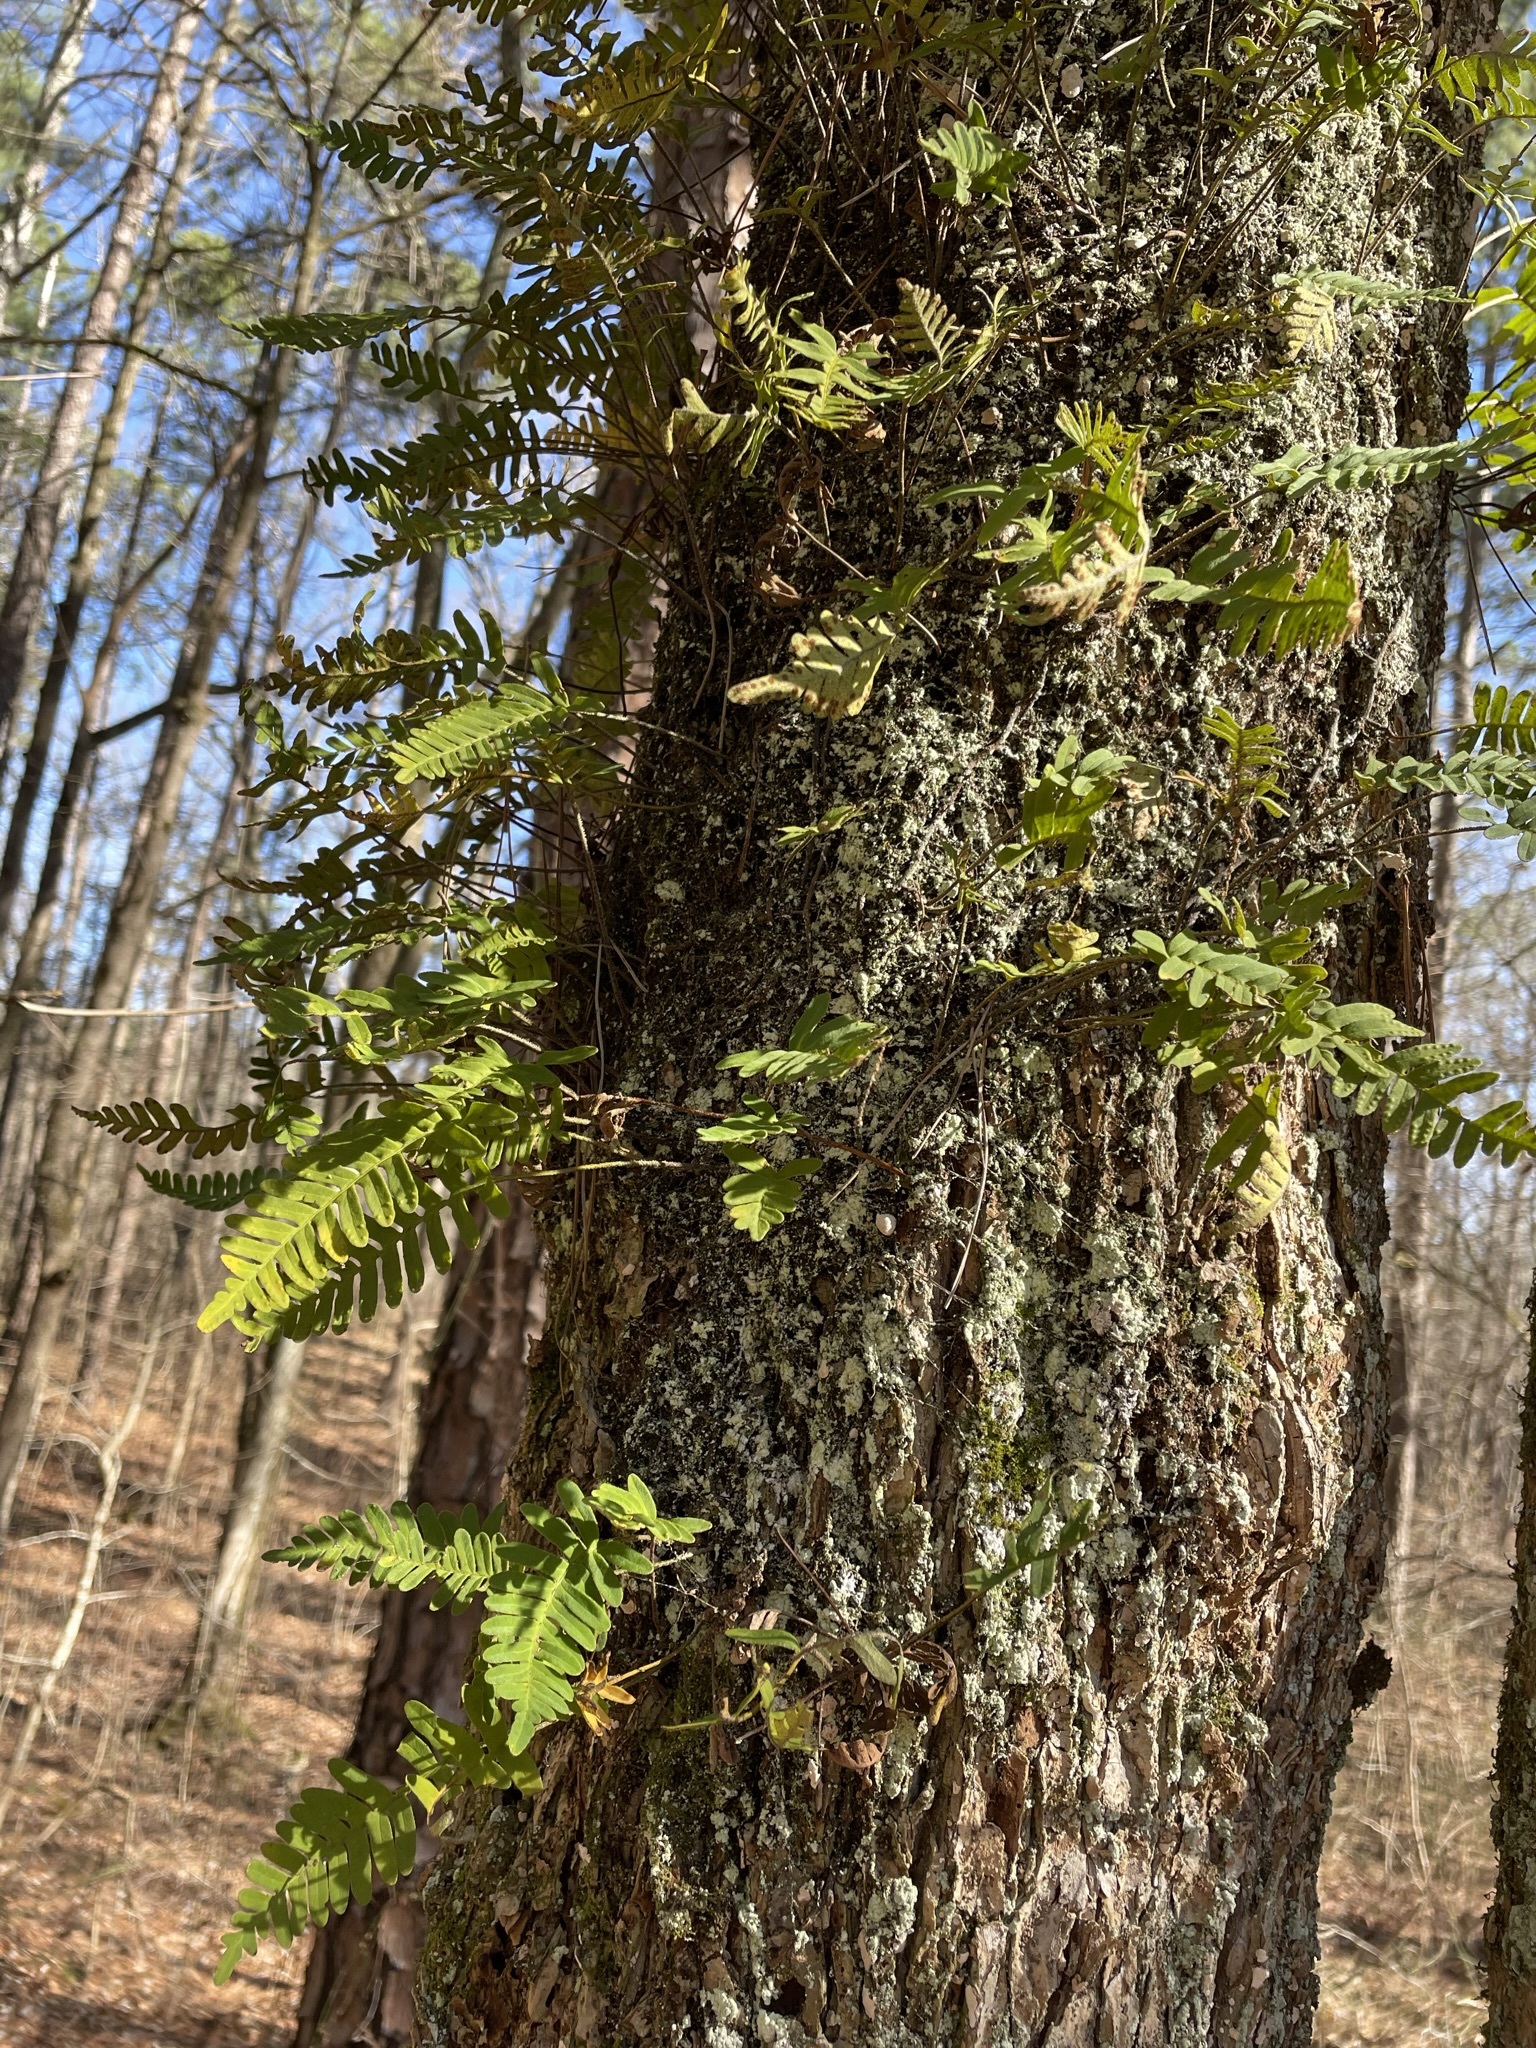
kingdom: Plantae
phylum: Tracheophyta
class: Polypodiopsida
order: Polypodiales
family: Polypodiaceae
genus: Pleopeltis
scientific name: Pleopeltis michauxiana
